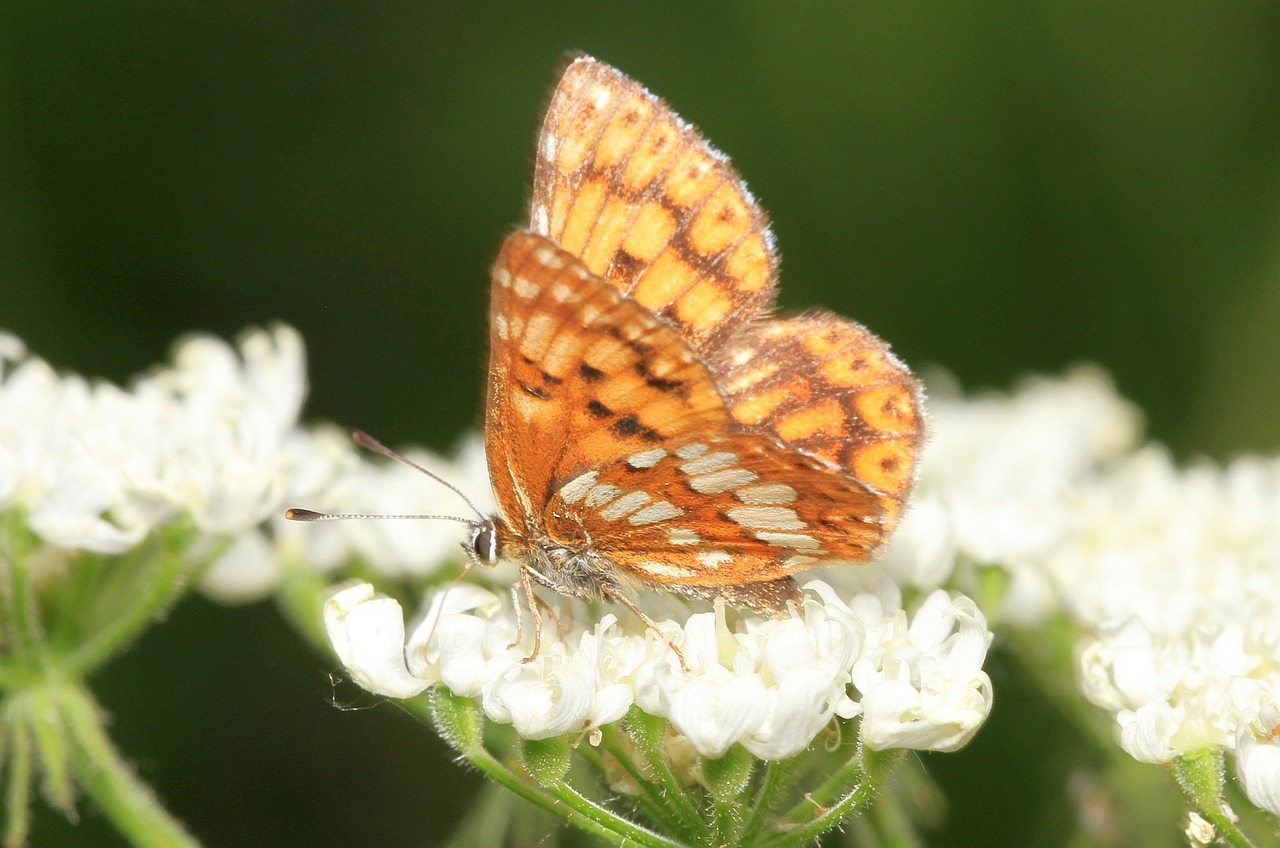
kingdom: Animalia
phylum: Arthropoda
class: Insecta
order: Lepidoptera
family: Riodinidae
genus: Hamearis
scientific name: Hamearis lucina
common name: Duke of burgundy fritillary
